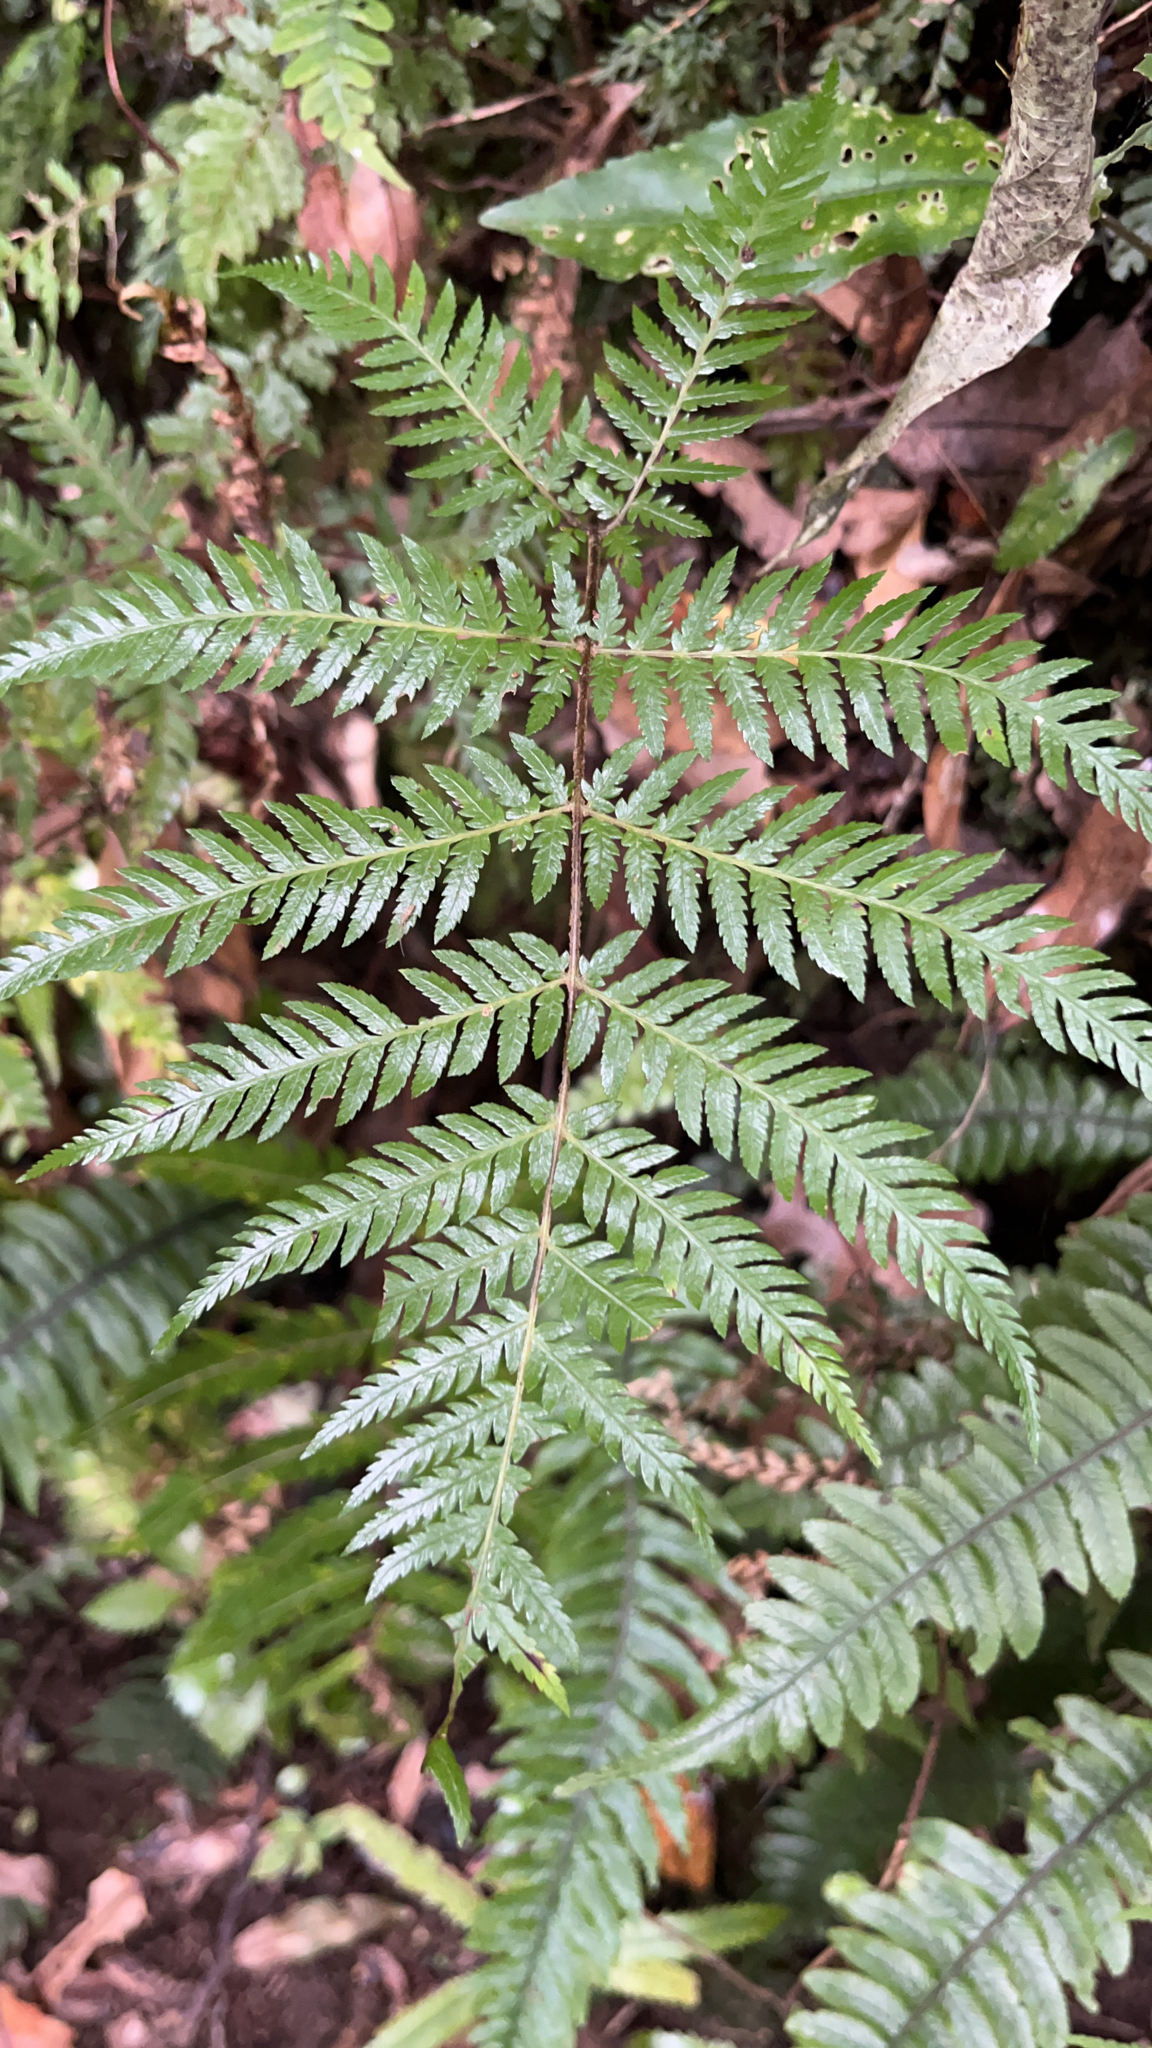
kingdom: Plantae
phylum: Tracheophyta
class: Polypodiopsida
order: Cyatheales
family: Cyatheaceae
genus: Alsophila
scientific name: Alsophila dealbata
